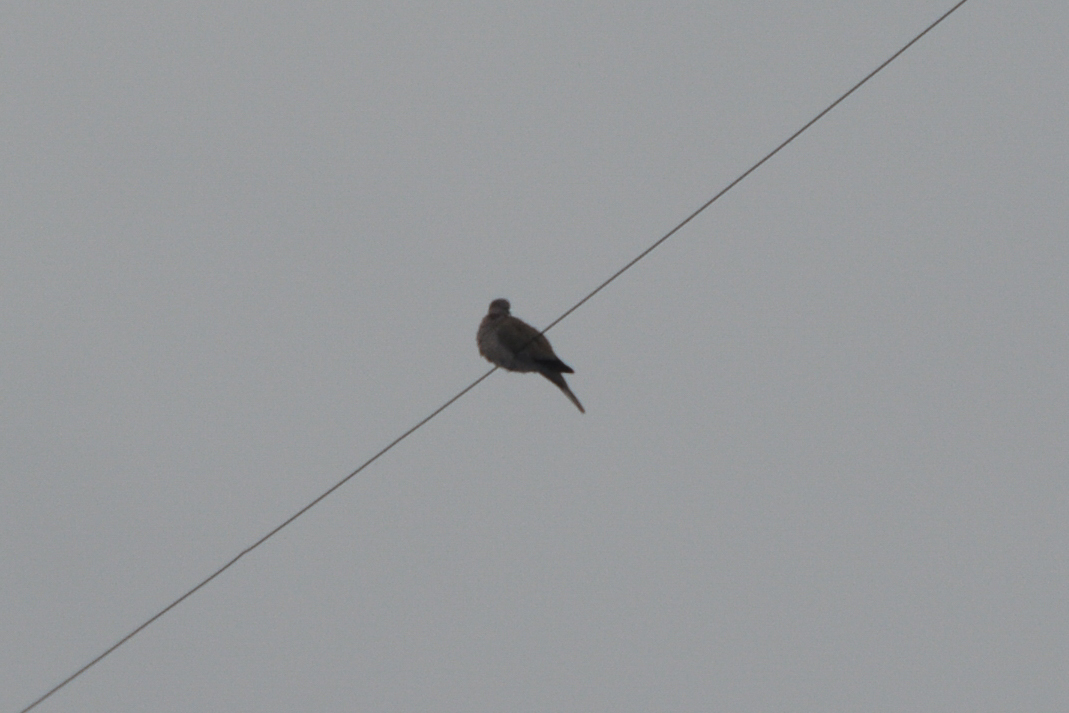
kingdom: Animalia
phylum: Chordata
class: Aves
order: Columbiformes
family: Columbidae
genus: Streptopelia
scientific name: Streptopelia decaocto
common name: Eurasian collared dove
